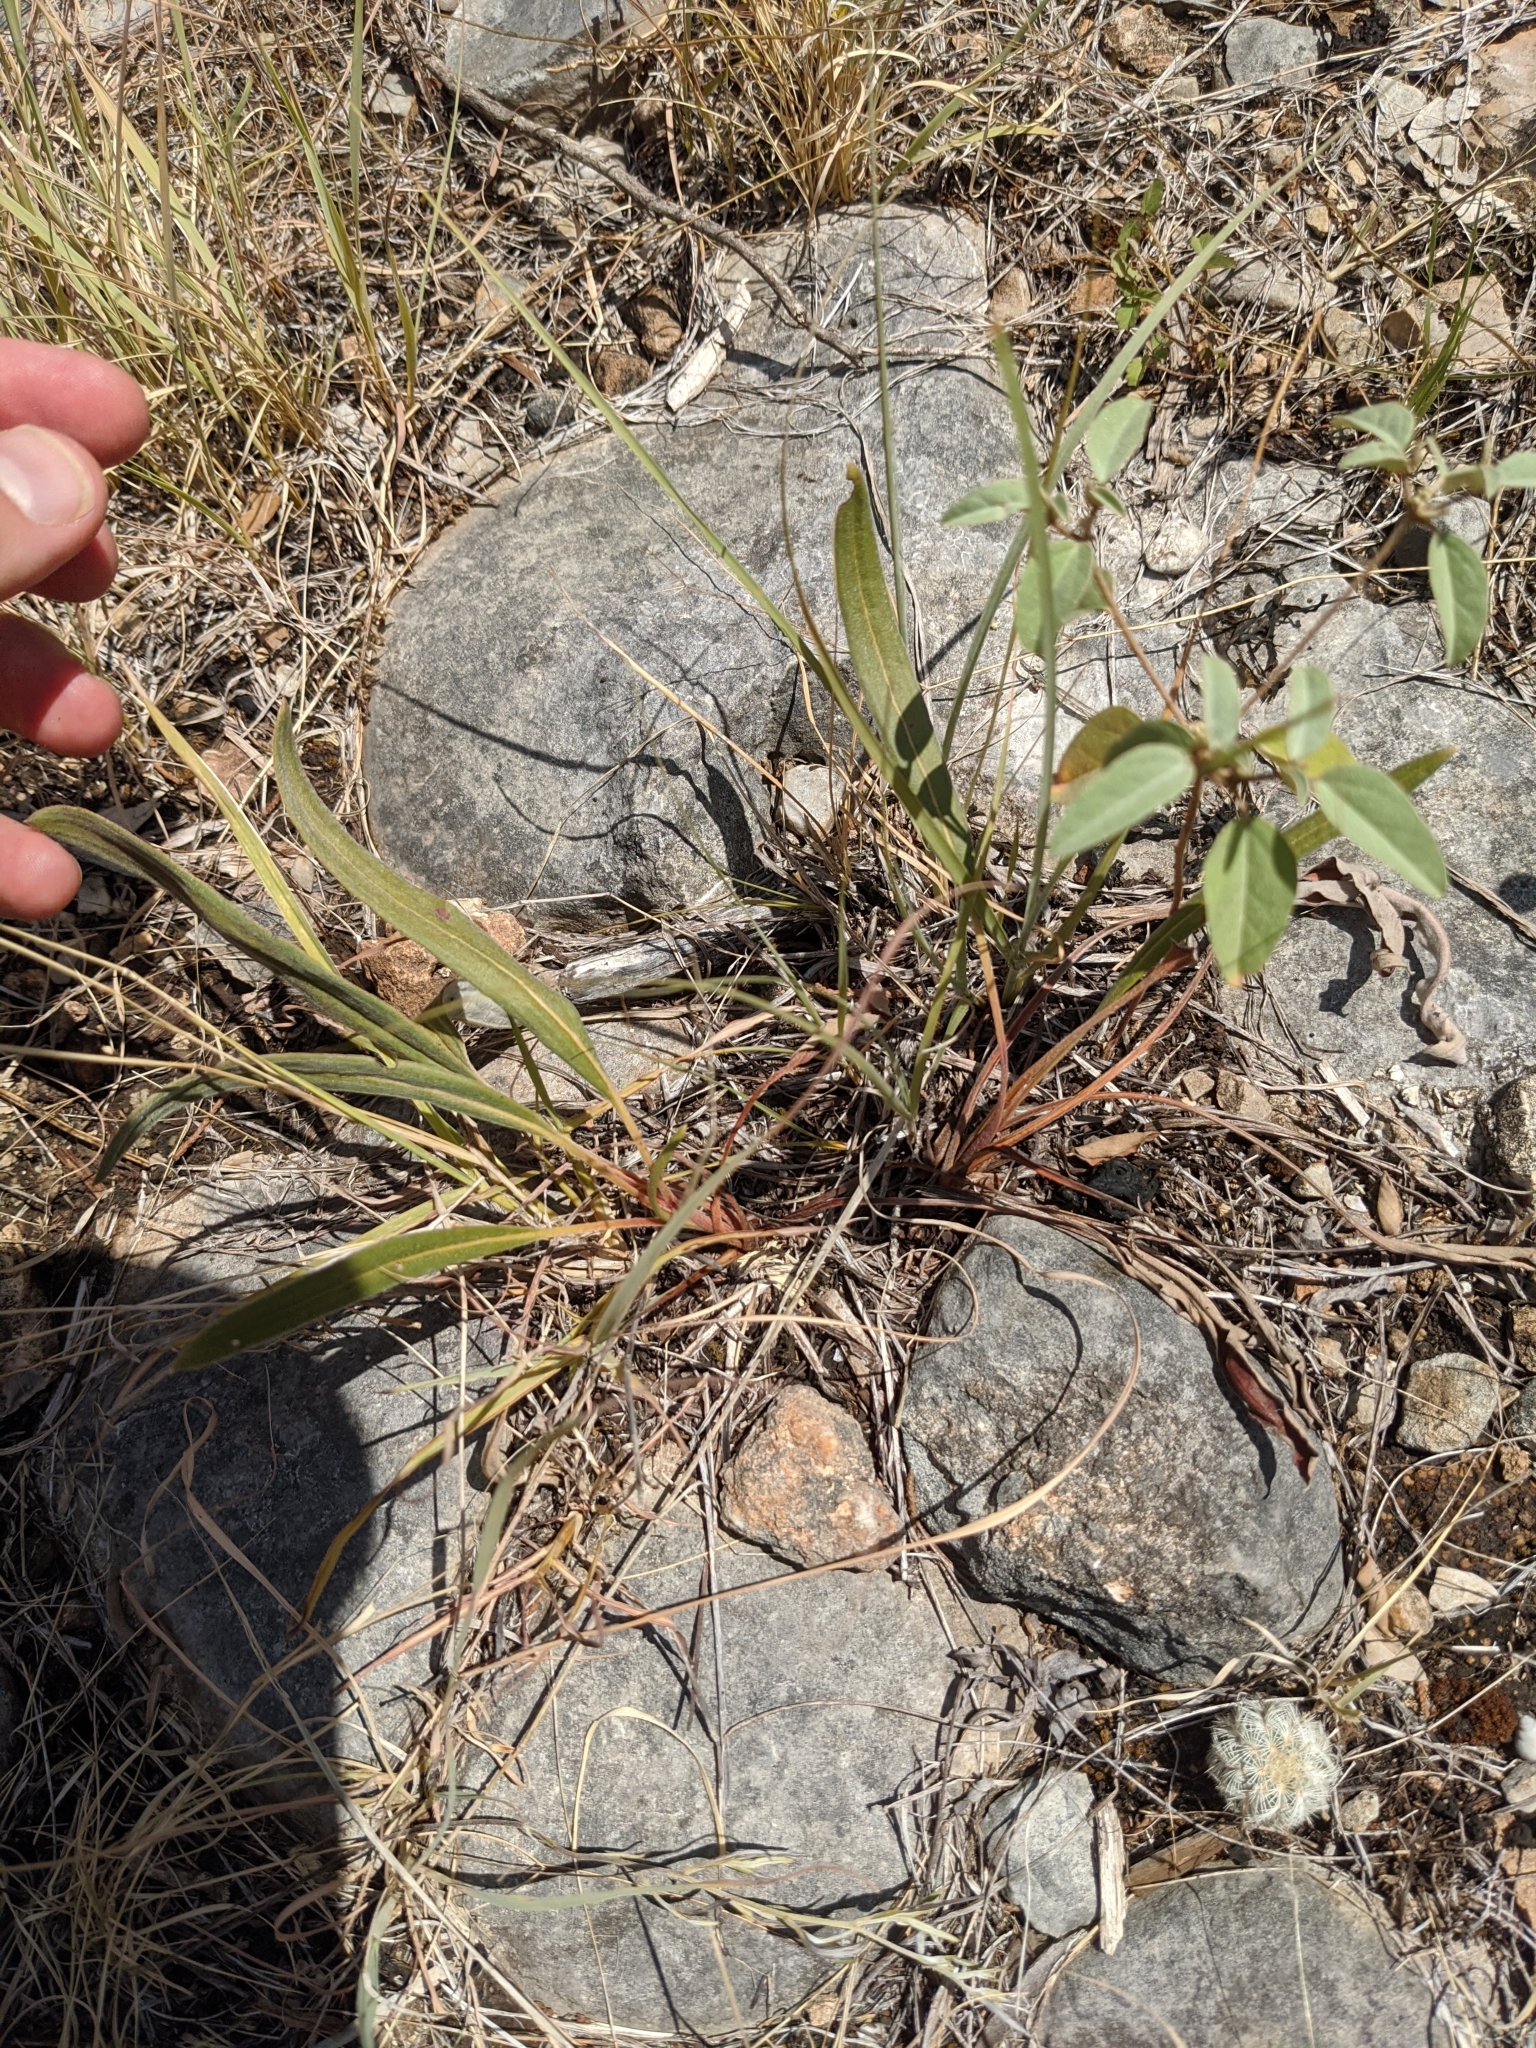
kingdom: Plantae
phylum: Tracheophyta
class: Magnoliopsida
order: Caryophyllales
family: Polygonaceae
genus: Eriogonum
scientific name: Eriogonum longifolium
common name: Longleaf wild buckwheat
